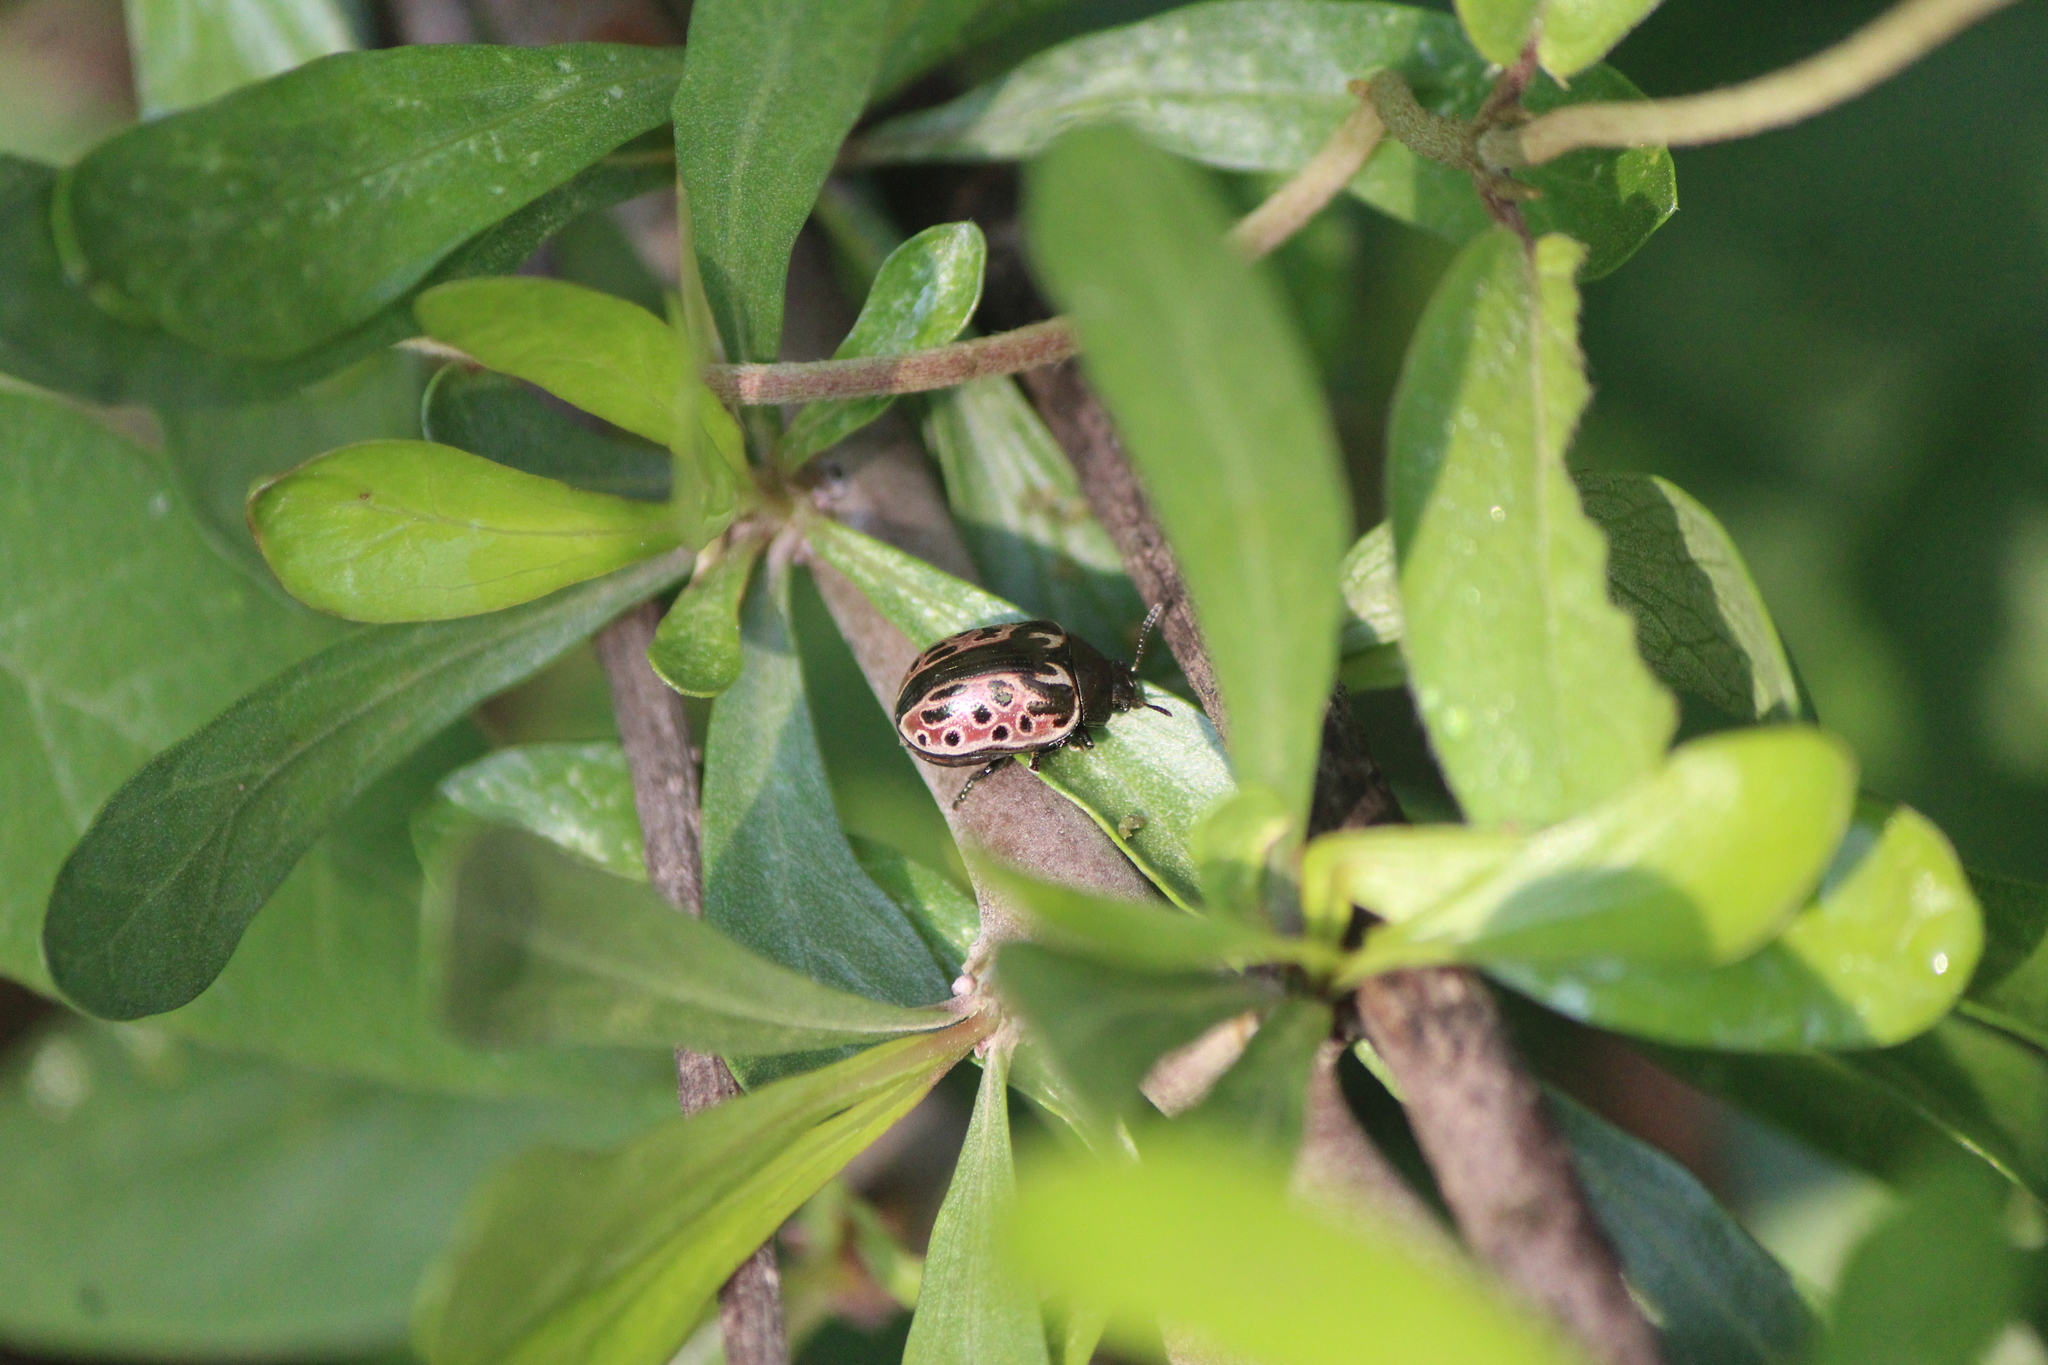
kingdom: Animalia
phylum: Arthropoda
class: Insecta
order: Coleoptera
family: Chrysomelidae
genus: Calligrapha
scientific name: Calligrapha
